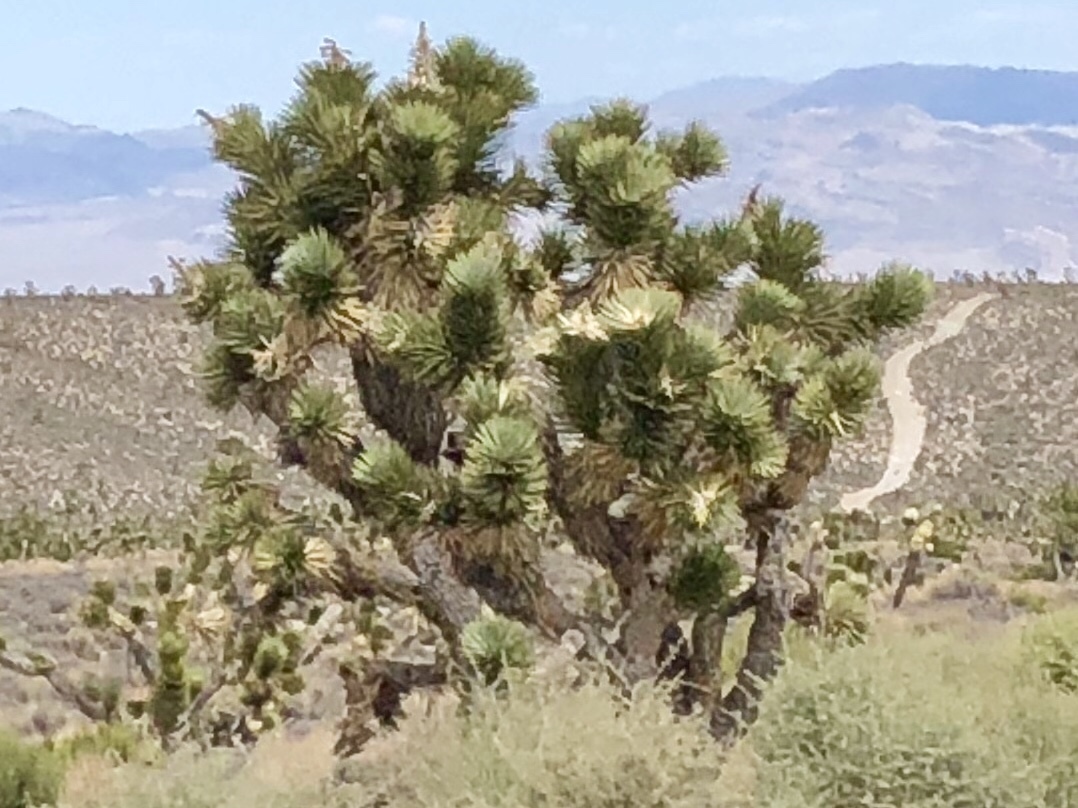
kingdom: Plantae
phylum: Tracheophyta
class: Liliopsida
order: Asparagales
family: Asparagaceae
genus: Yucca
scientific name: Yucca brevifolia
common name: Joshua tree
